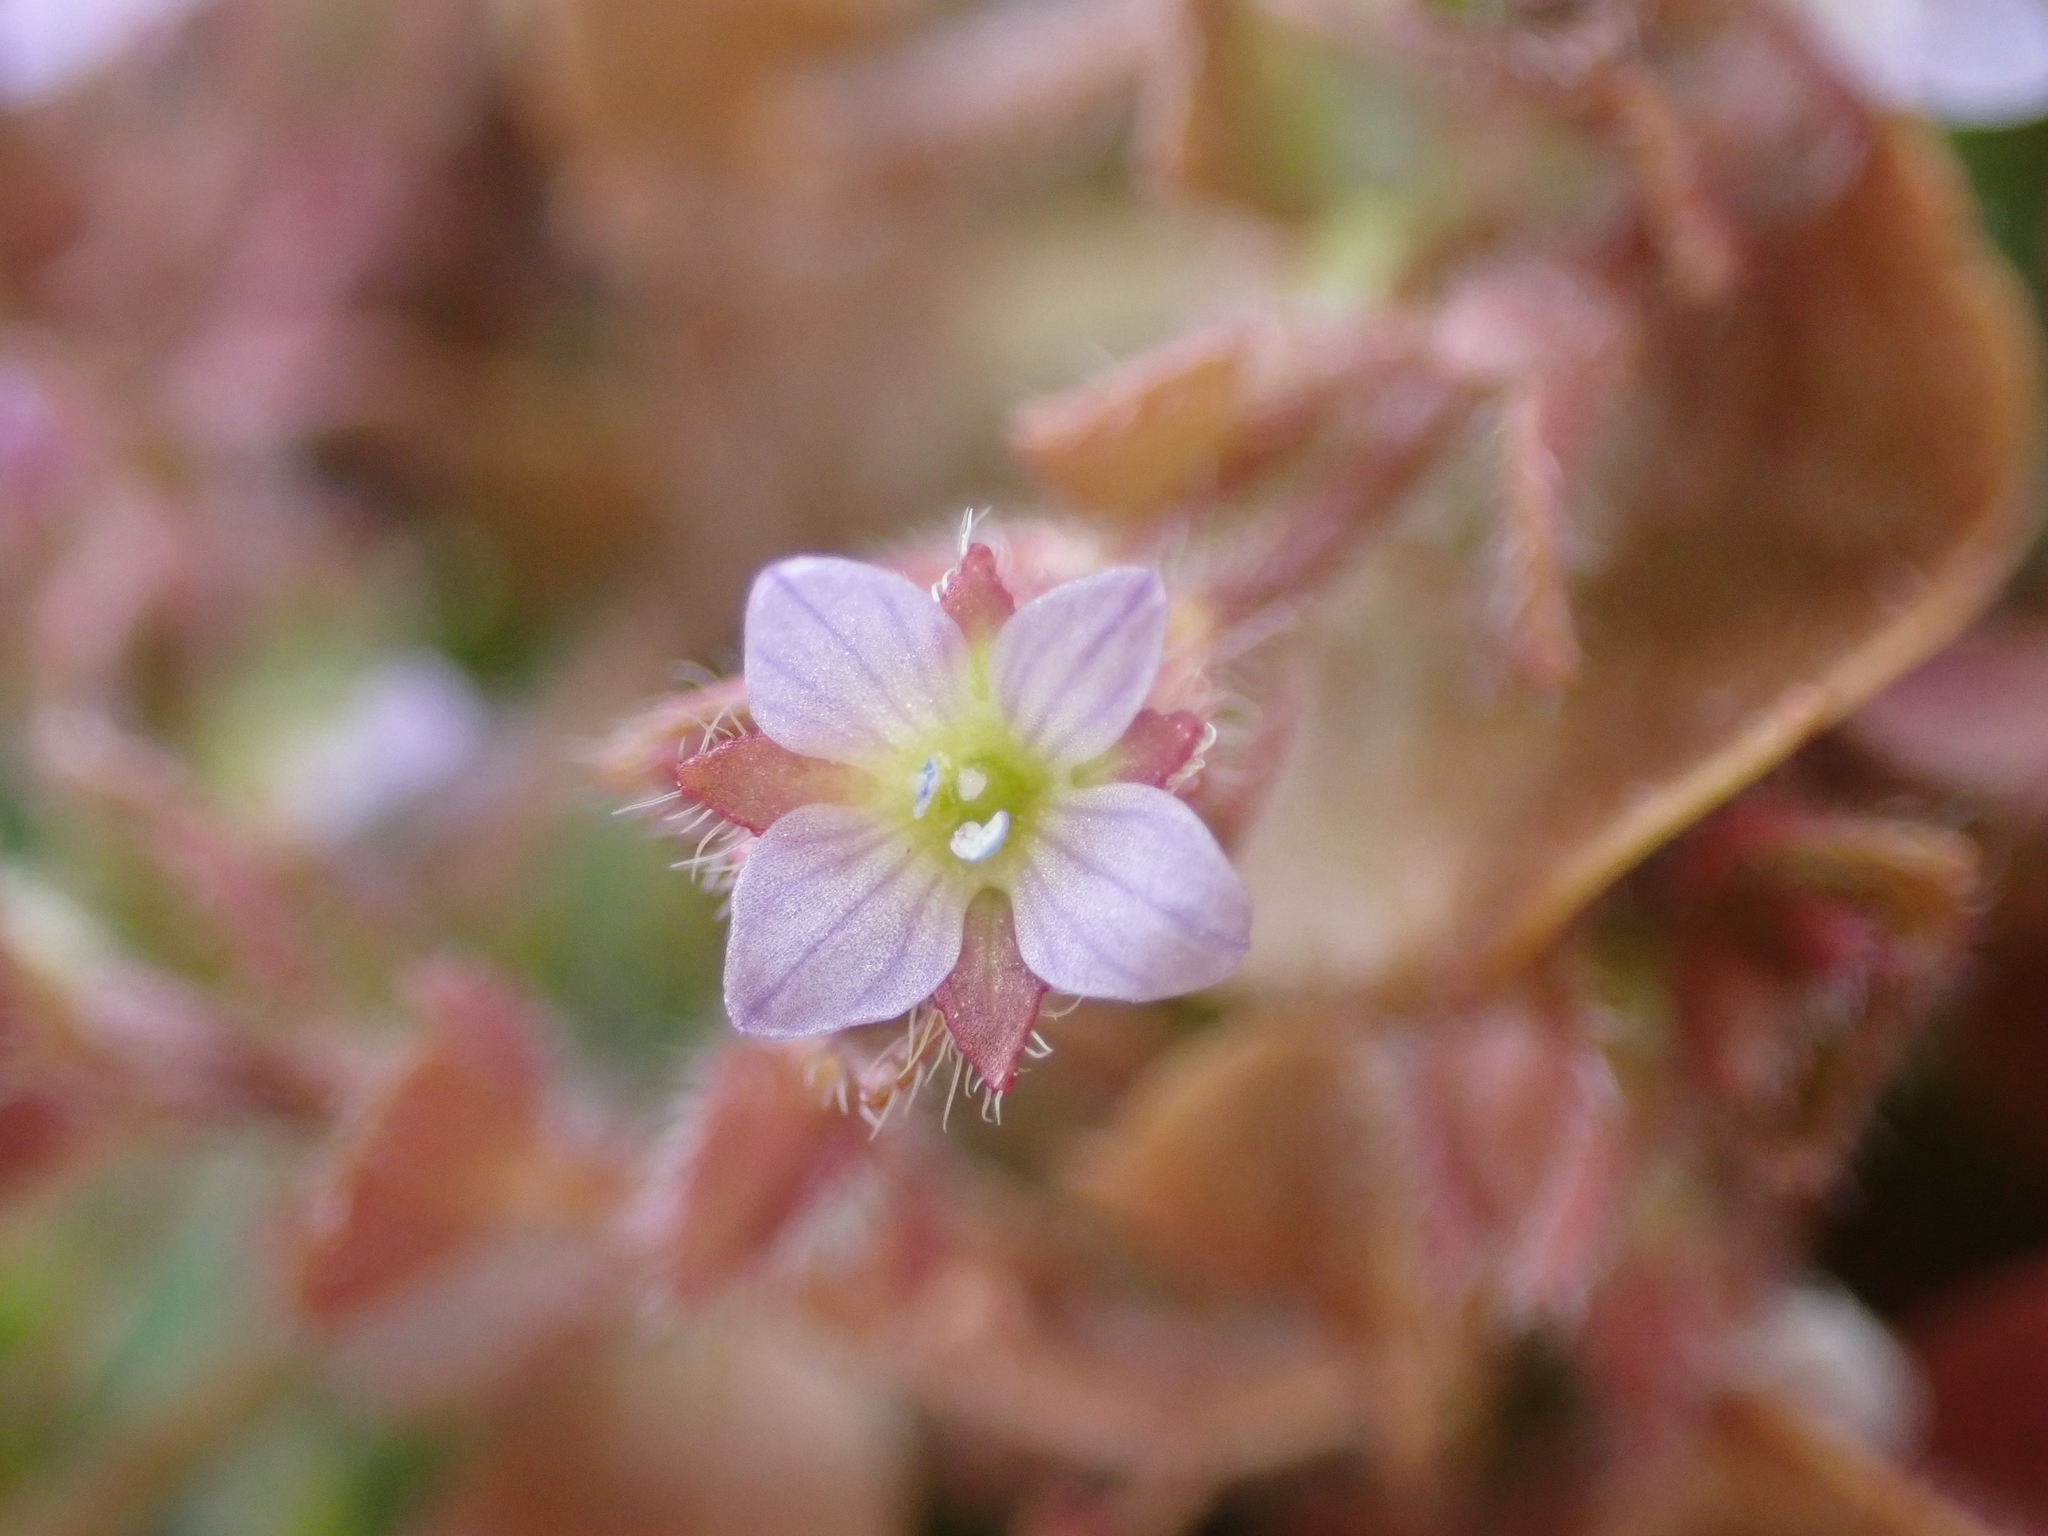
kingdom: Plantae
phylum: Tracheophyta
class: Magnoliopsida
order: Lamiales
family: Plantaginaceae
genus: Veronica
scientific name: Veronica sublobata
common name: False ivy-leaved speedwell
